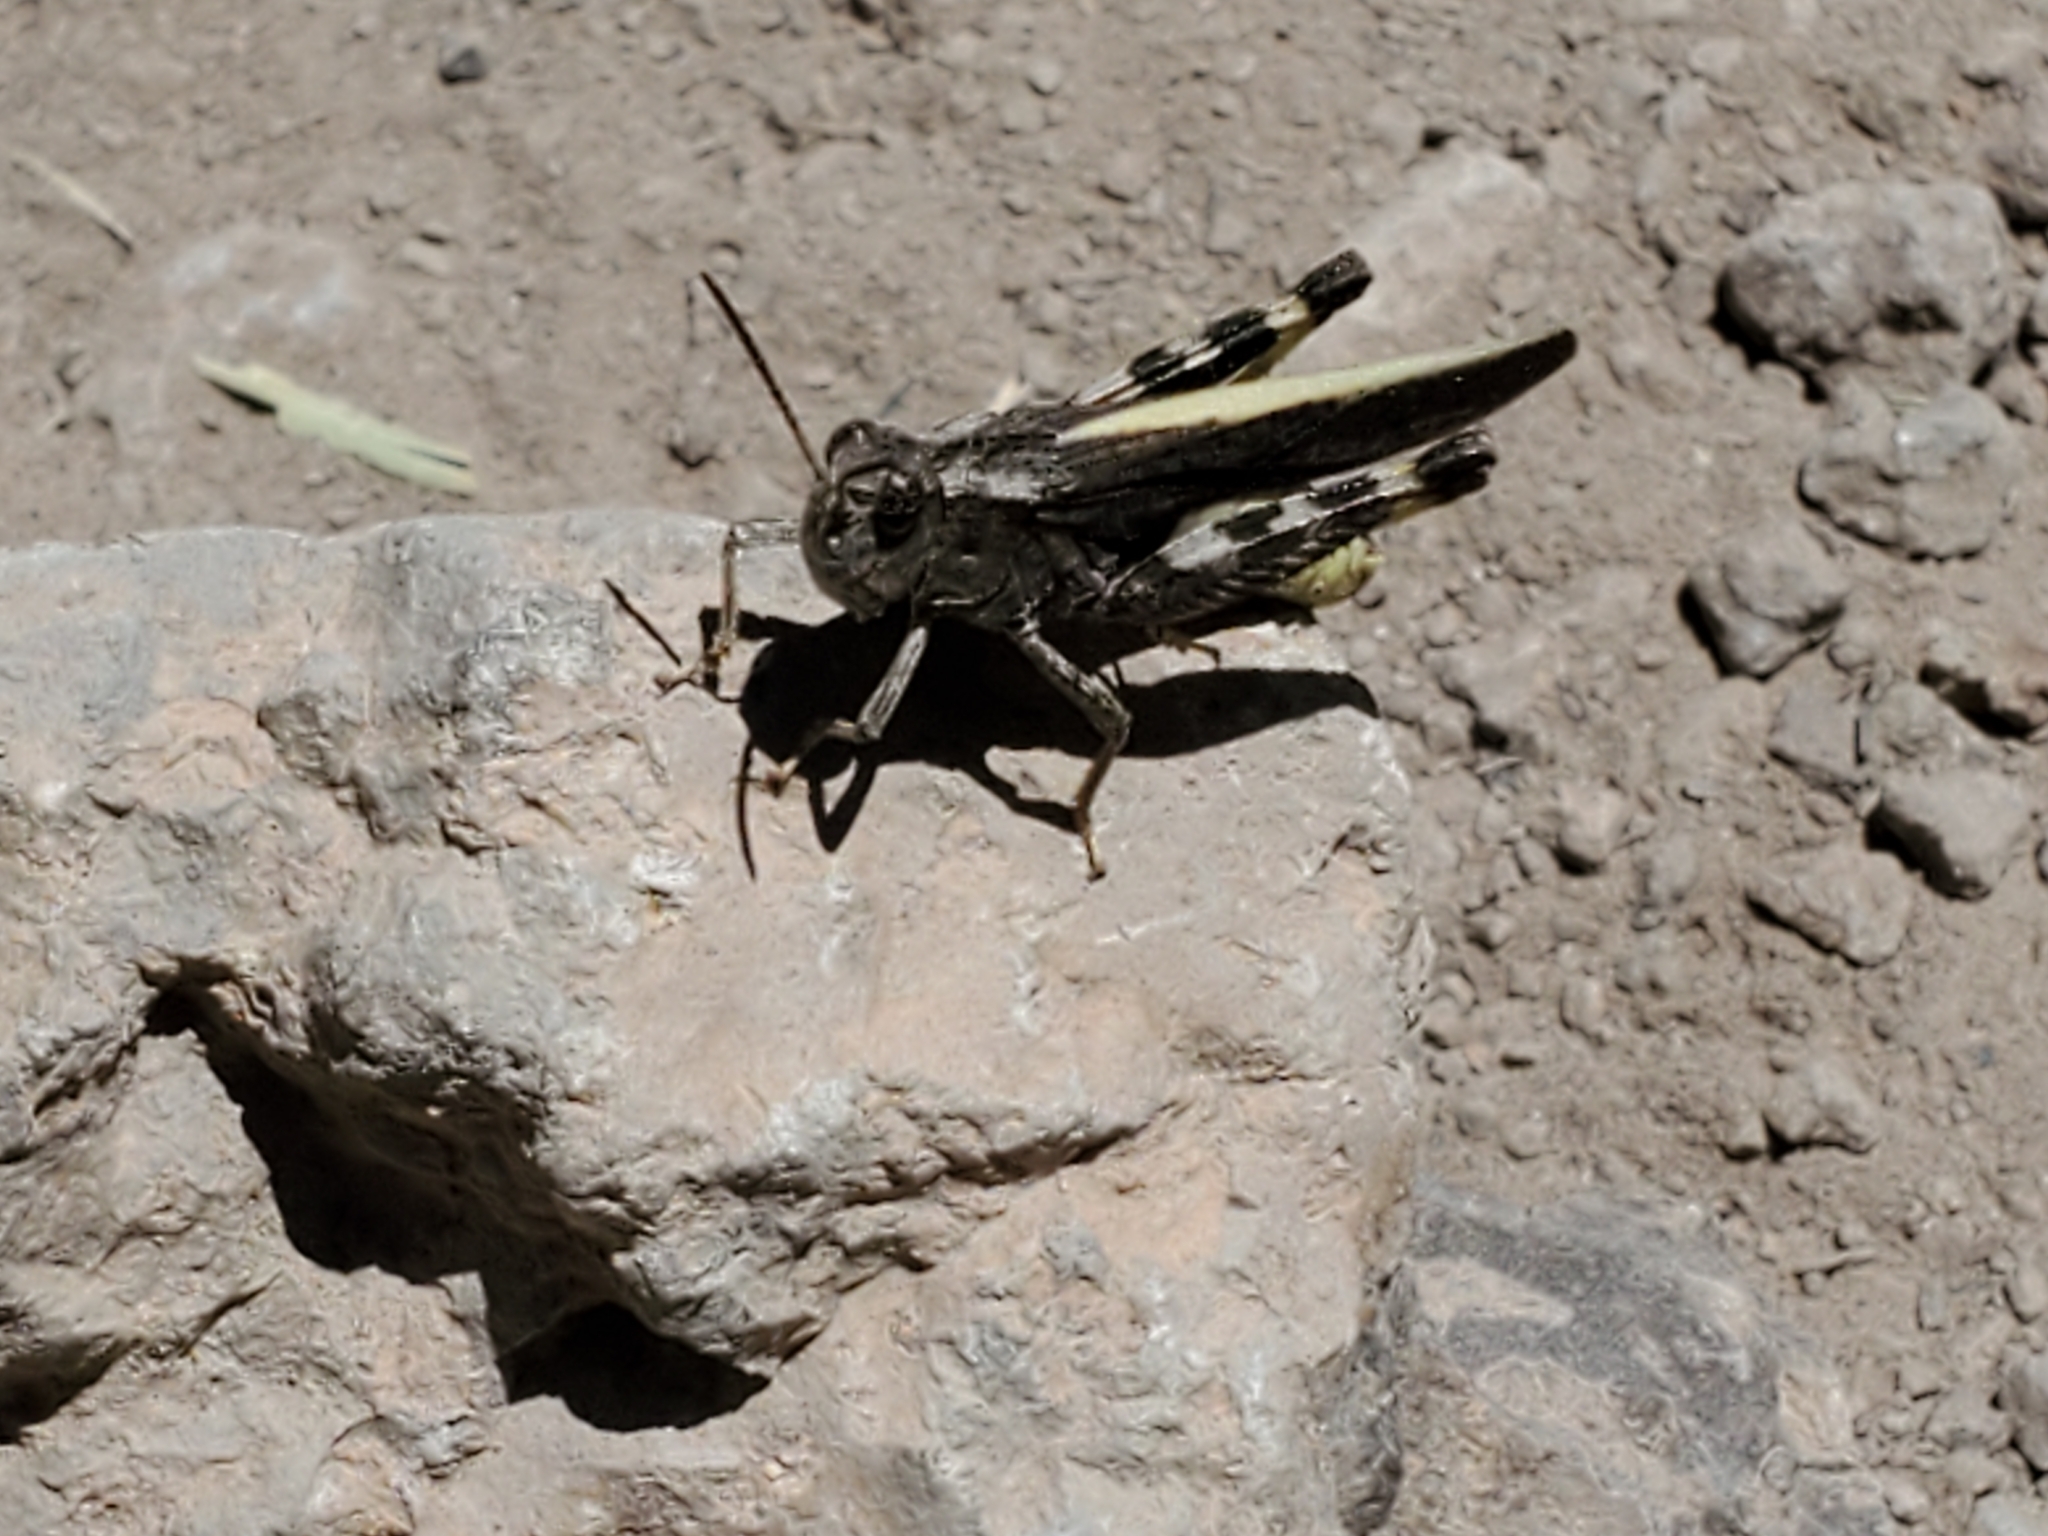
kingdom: Animalia
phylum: Arthropoda
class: Insecta
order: Orthoptera
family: Acrididae
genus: Arphia
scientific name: Arphia conspersa
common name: Speckle-winged rangeland grasshopper
